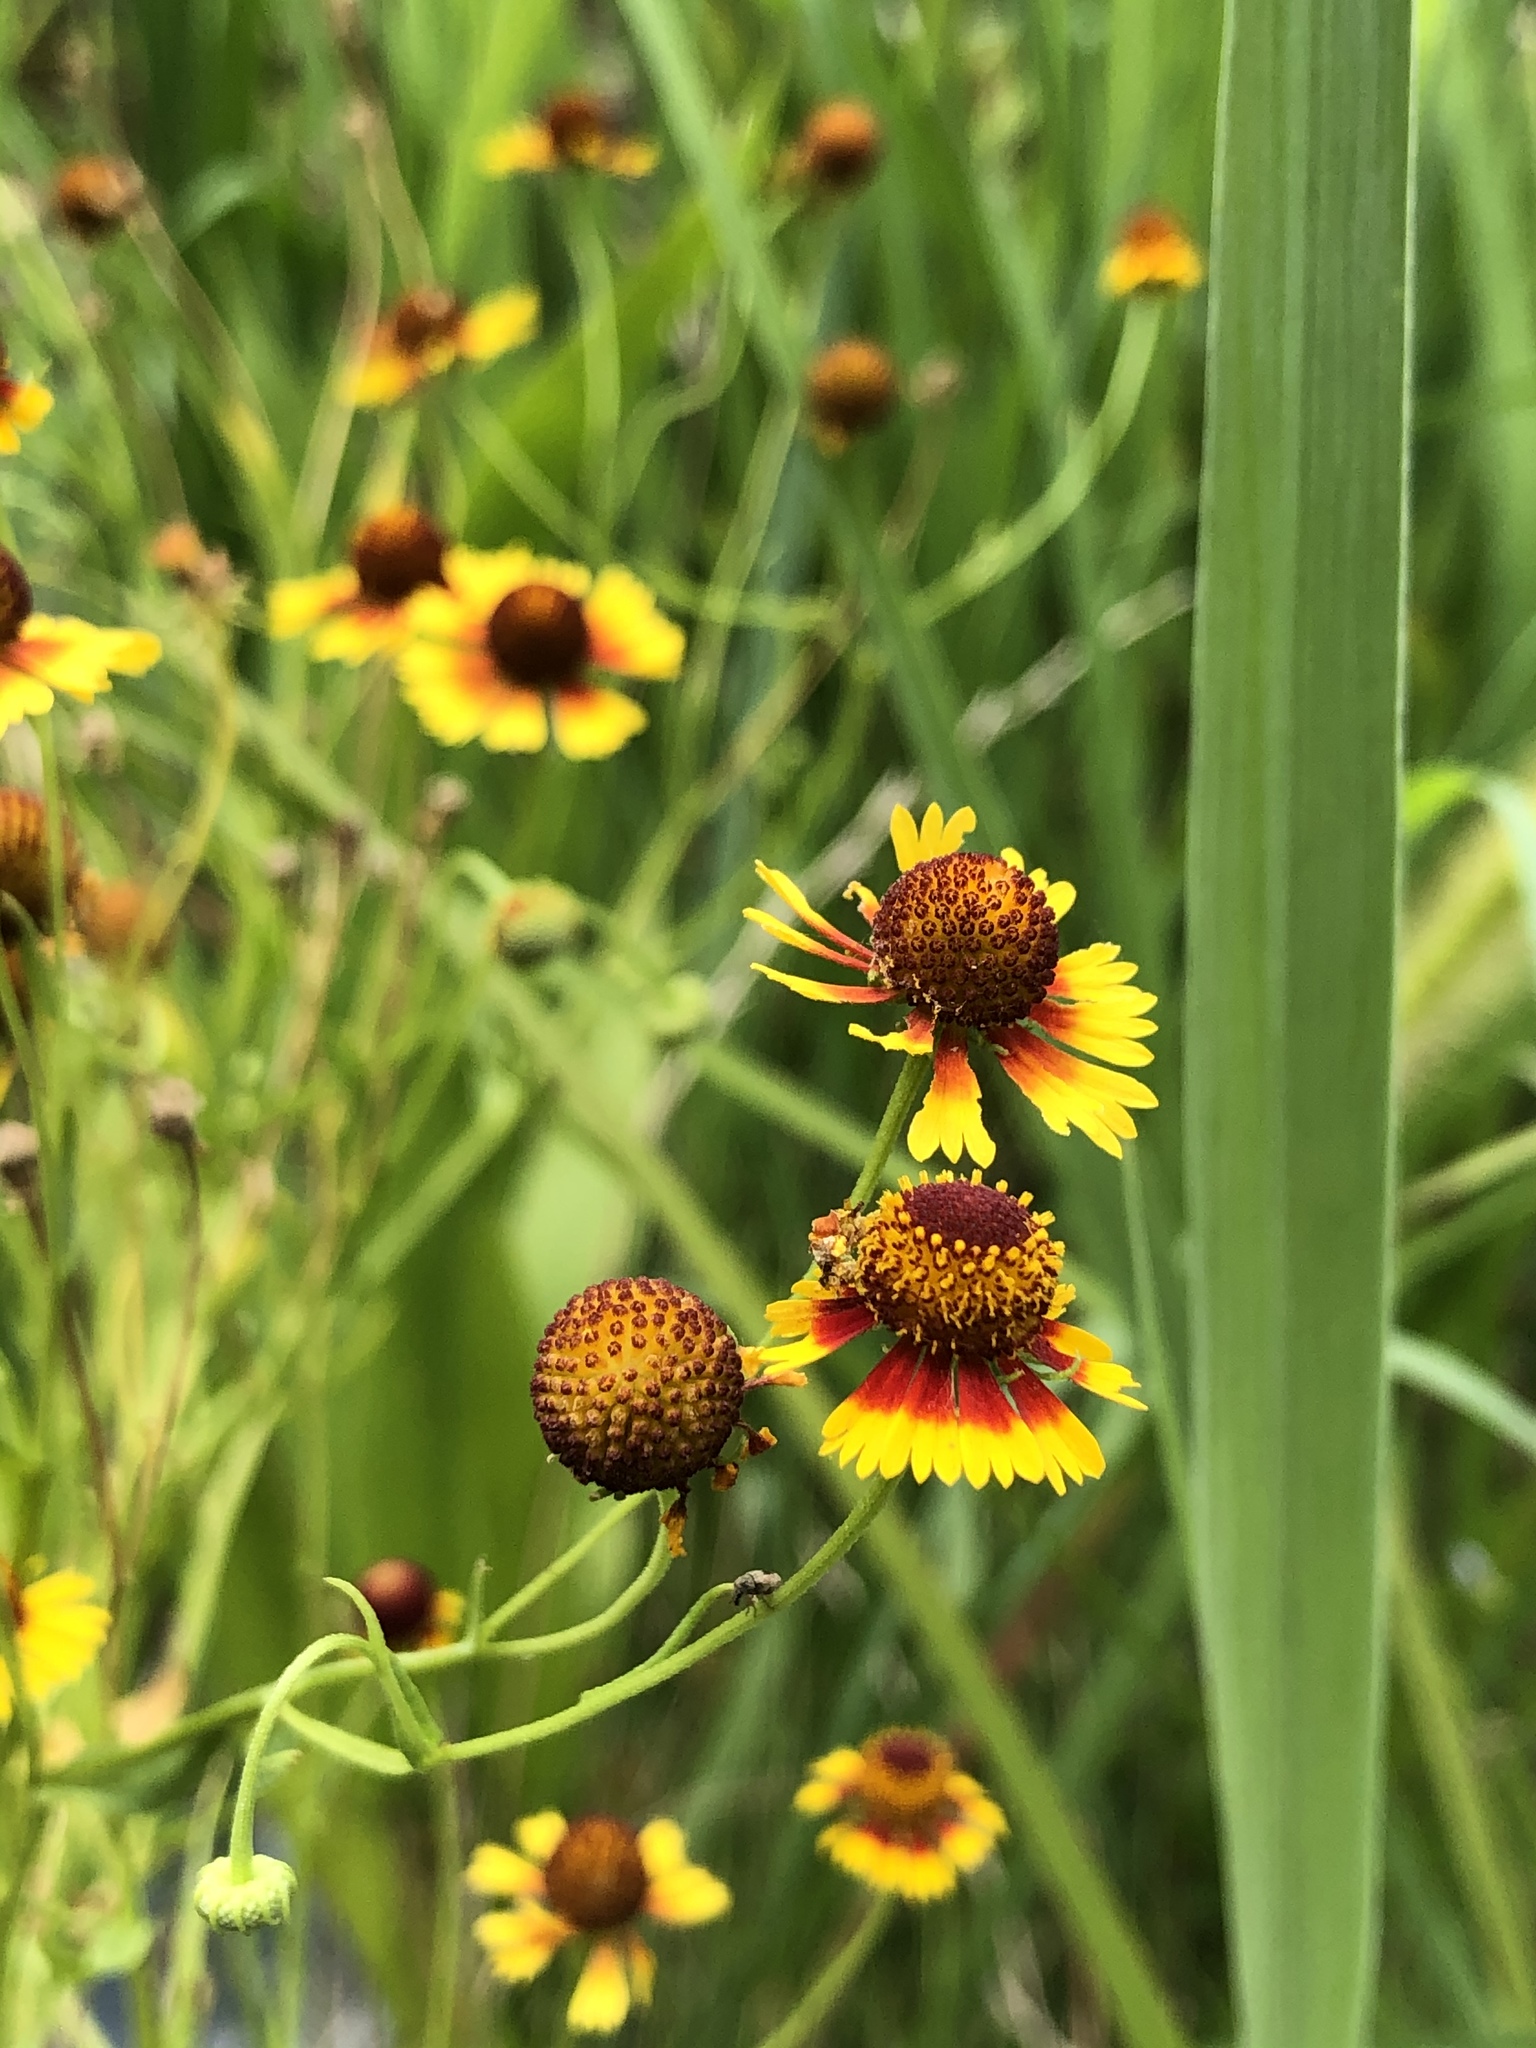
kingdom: Plantae
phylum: Tracheophyta
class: Magnoliopsida
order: Asterales
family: Asteraceae
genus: Helenium
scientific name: Helenium elegans
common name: Pretty sneezeweed
